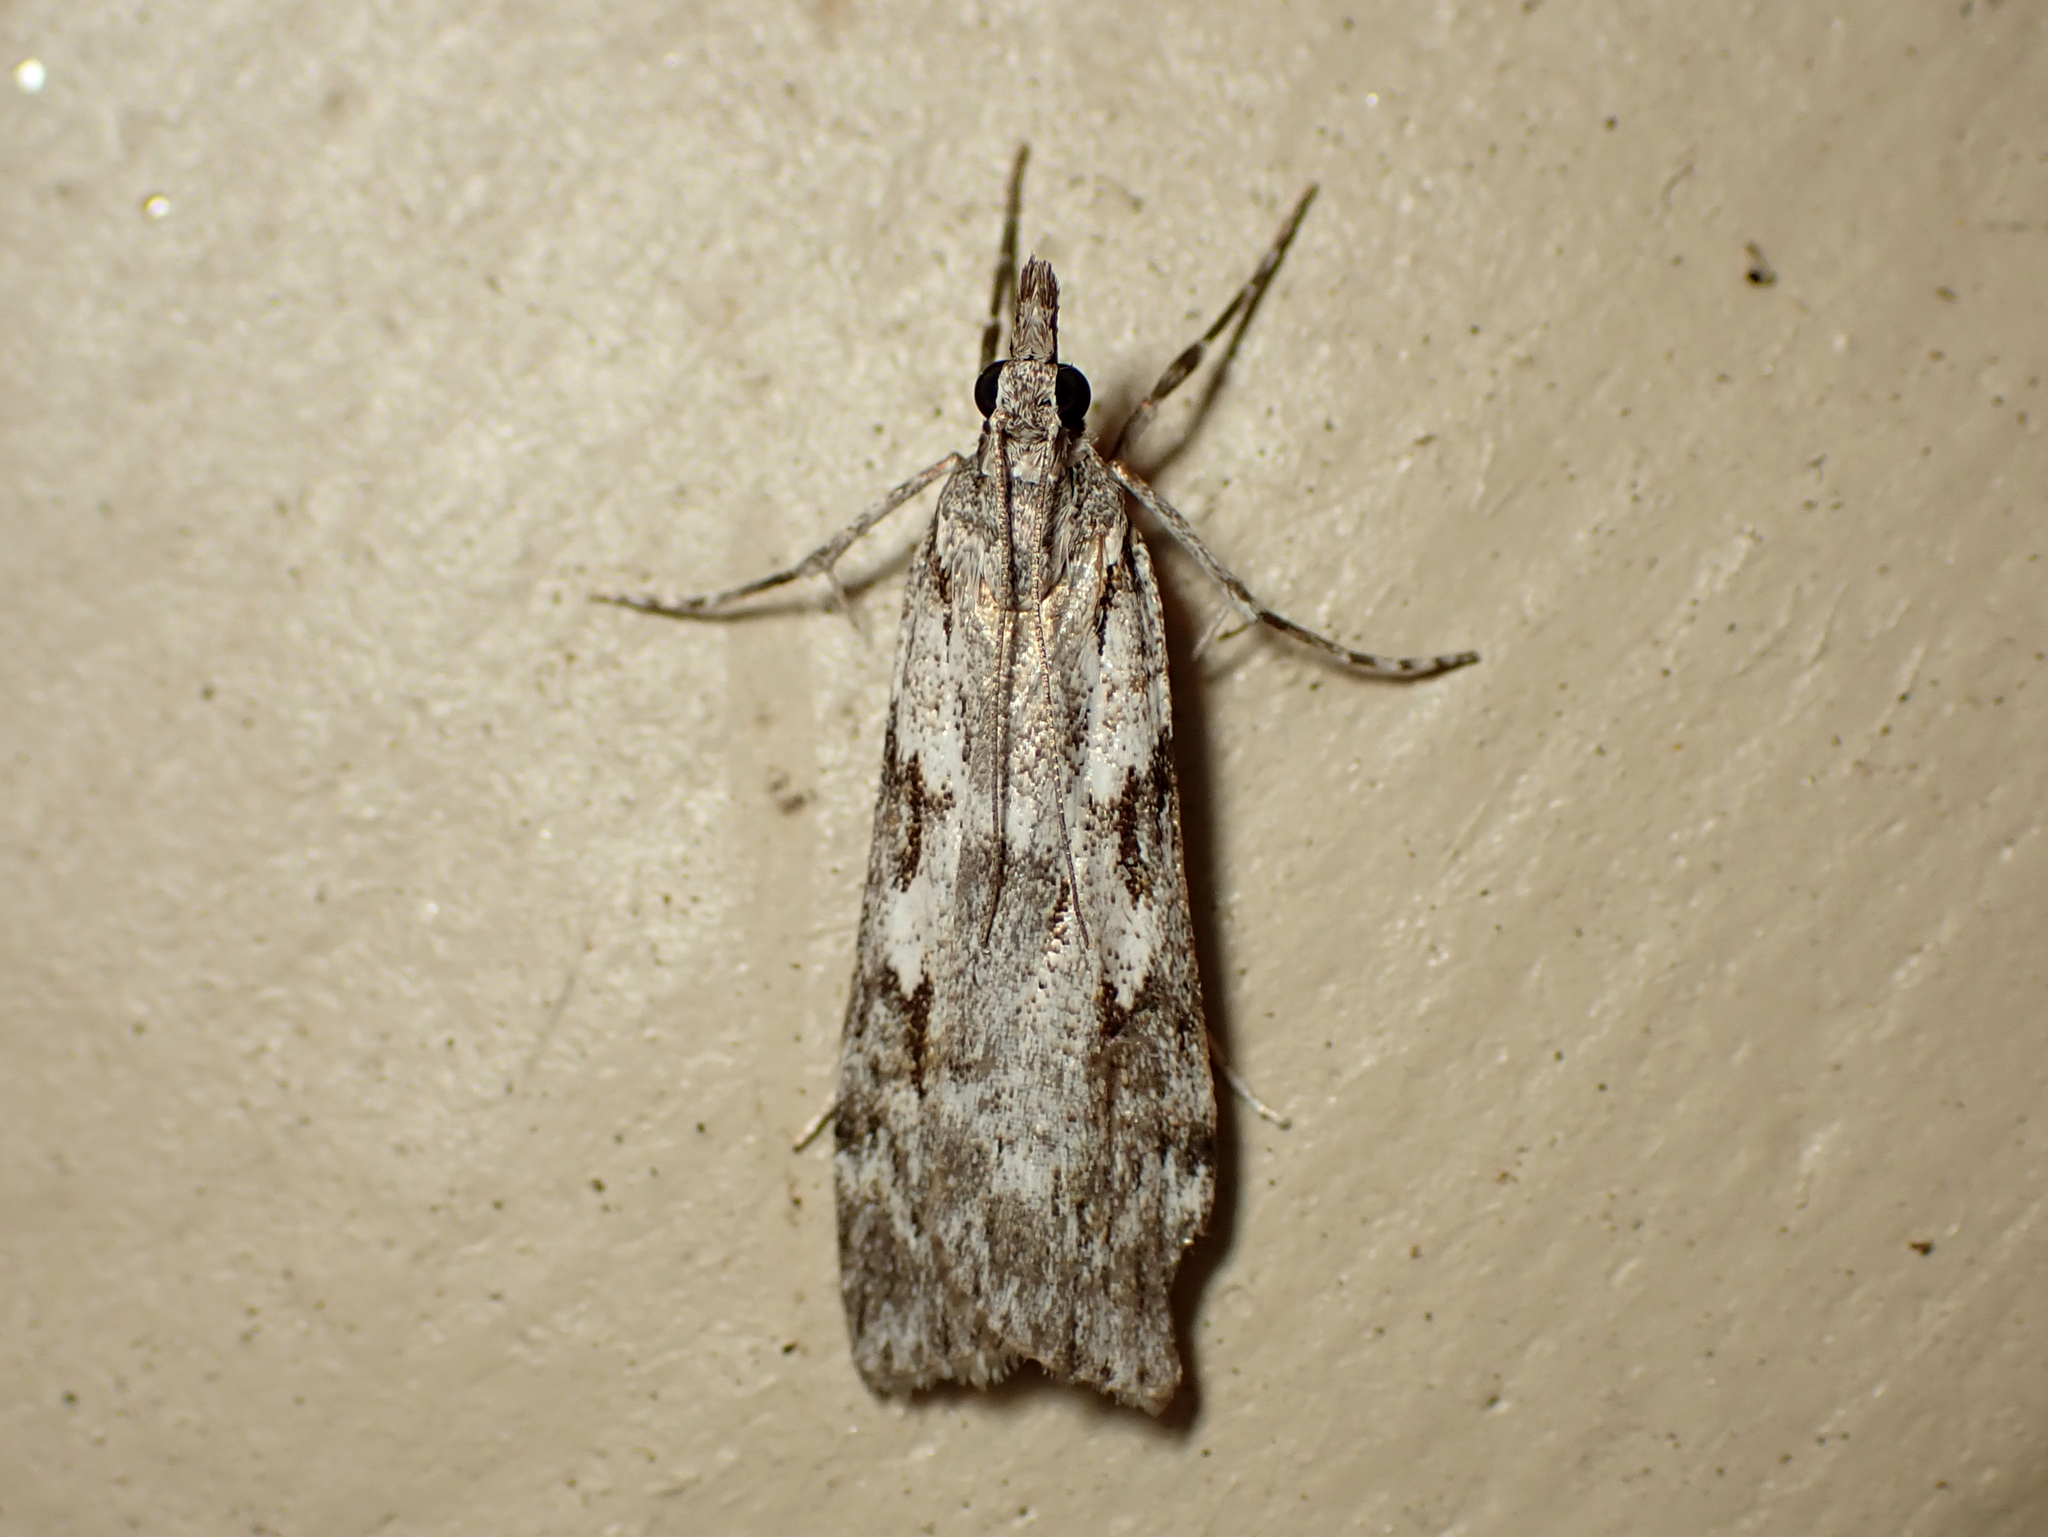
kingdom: Animalia
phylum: Arthropoda
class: Insecta
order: Lepidoptera
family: Crambidae
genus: Scoparia
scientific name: Scoparia halopis
